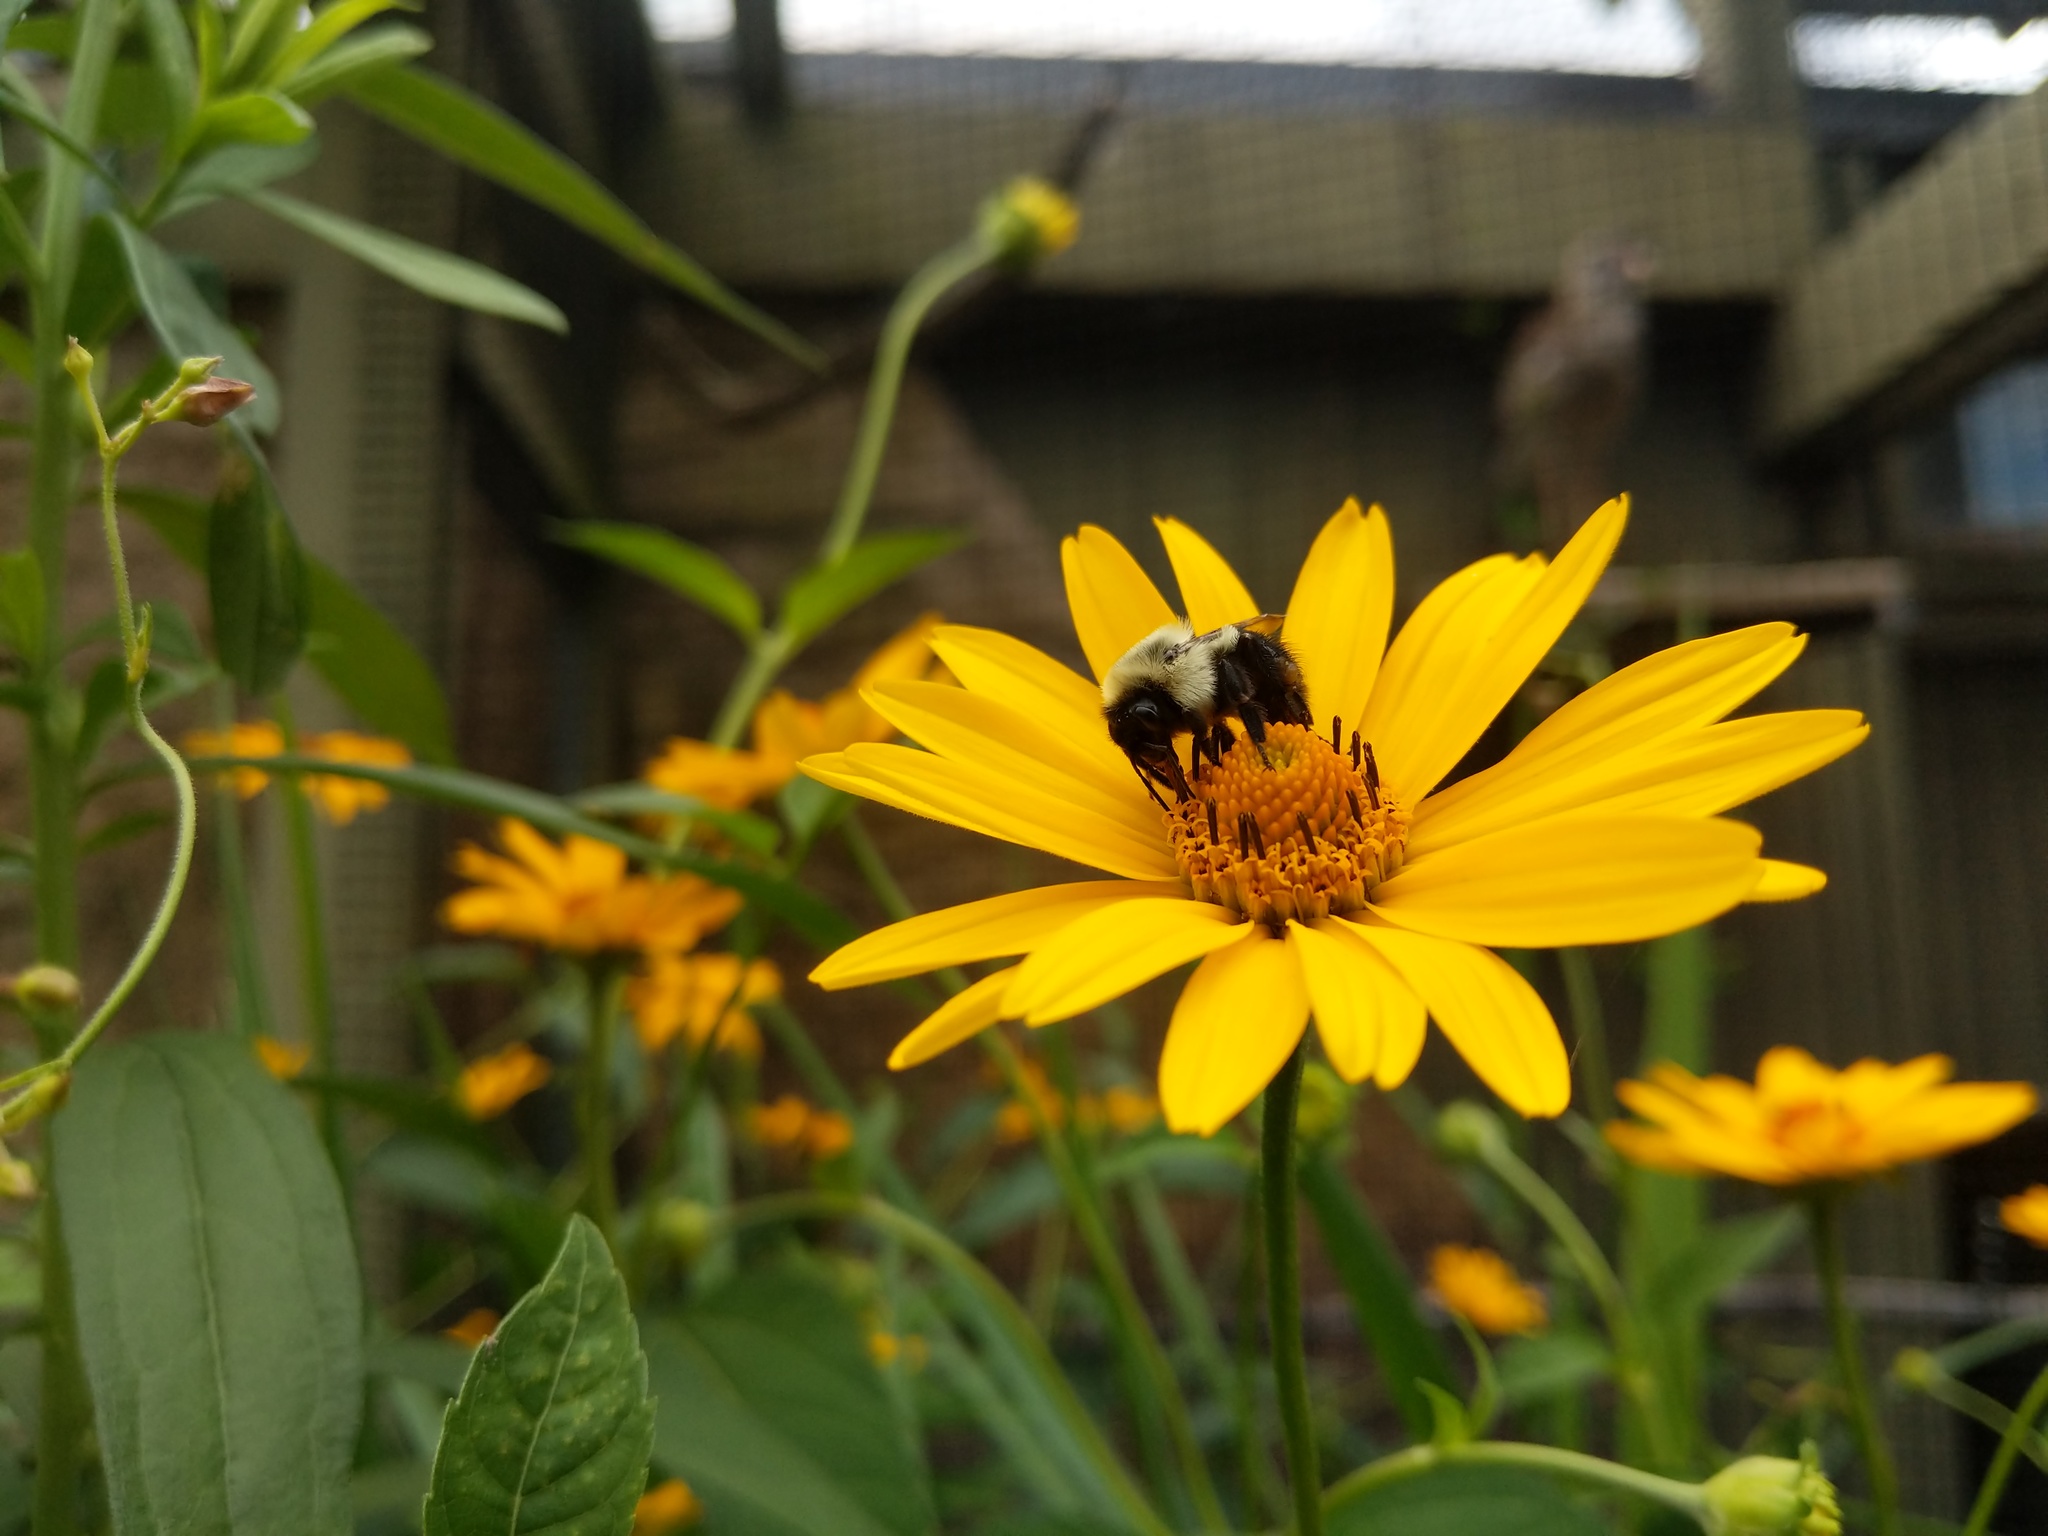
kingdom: Animalia
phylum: Arthropoda
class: Insecta
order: Hymenoptera
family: Apidae
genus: Bombus
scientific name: Bombus impatiens
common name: Common eastern bumble bee
